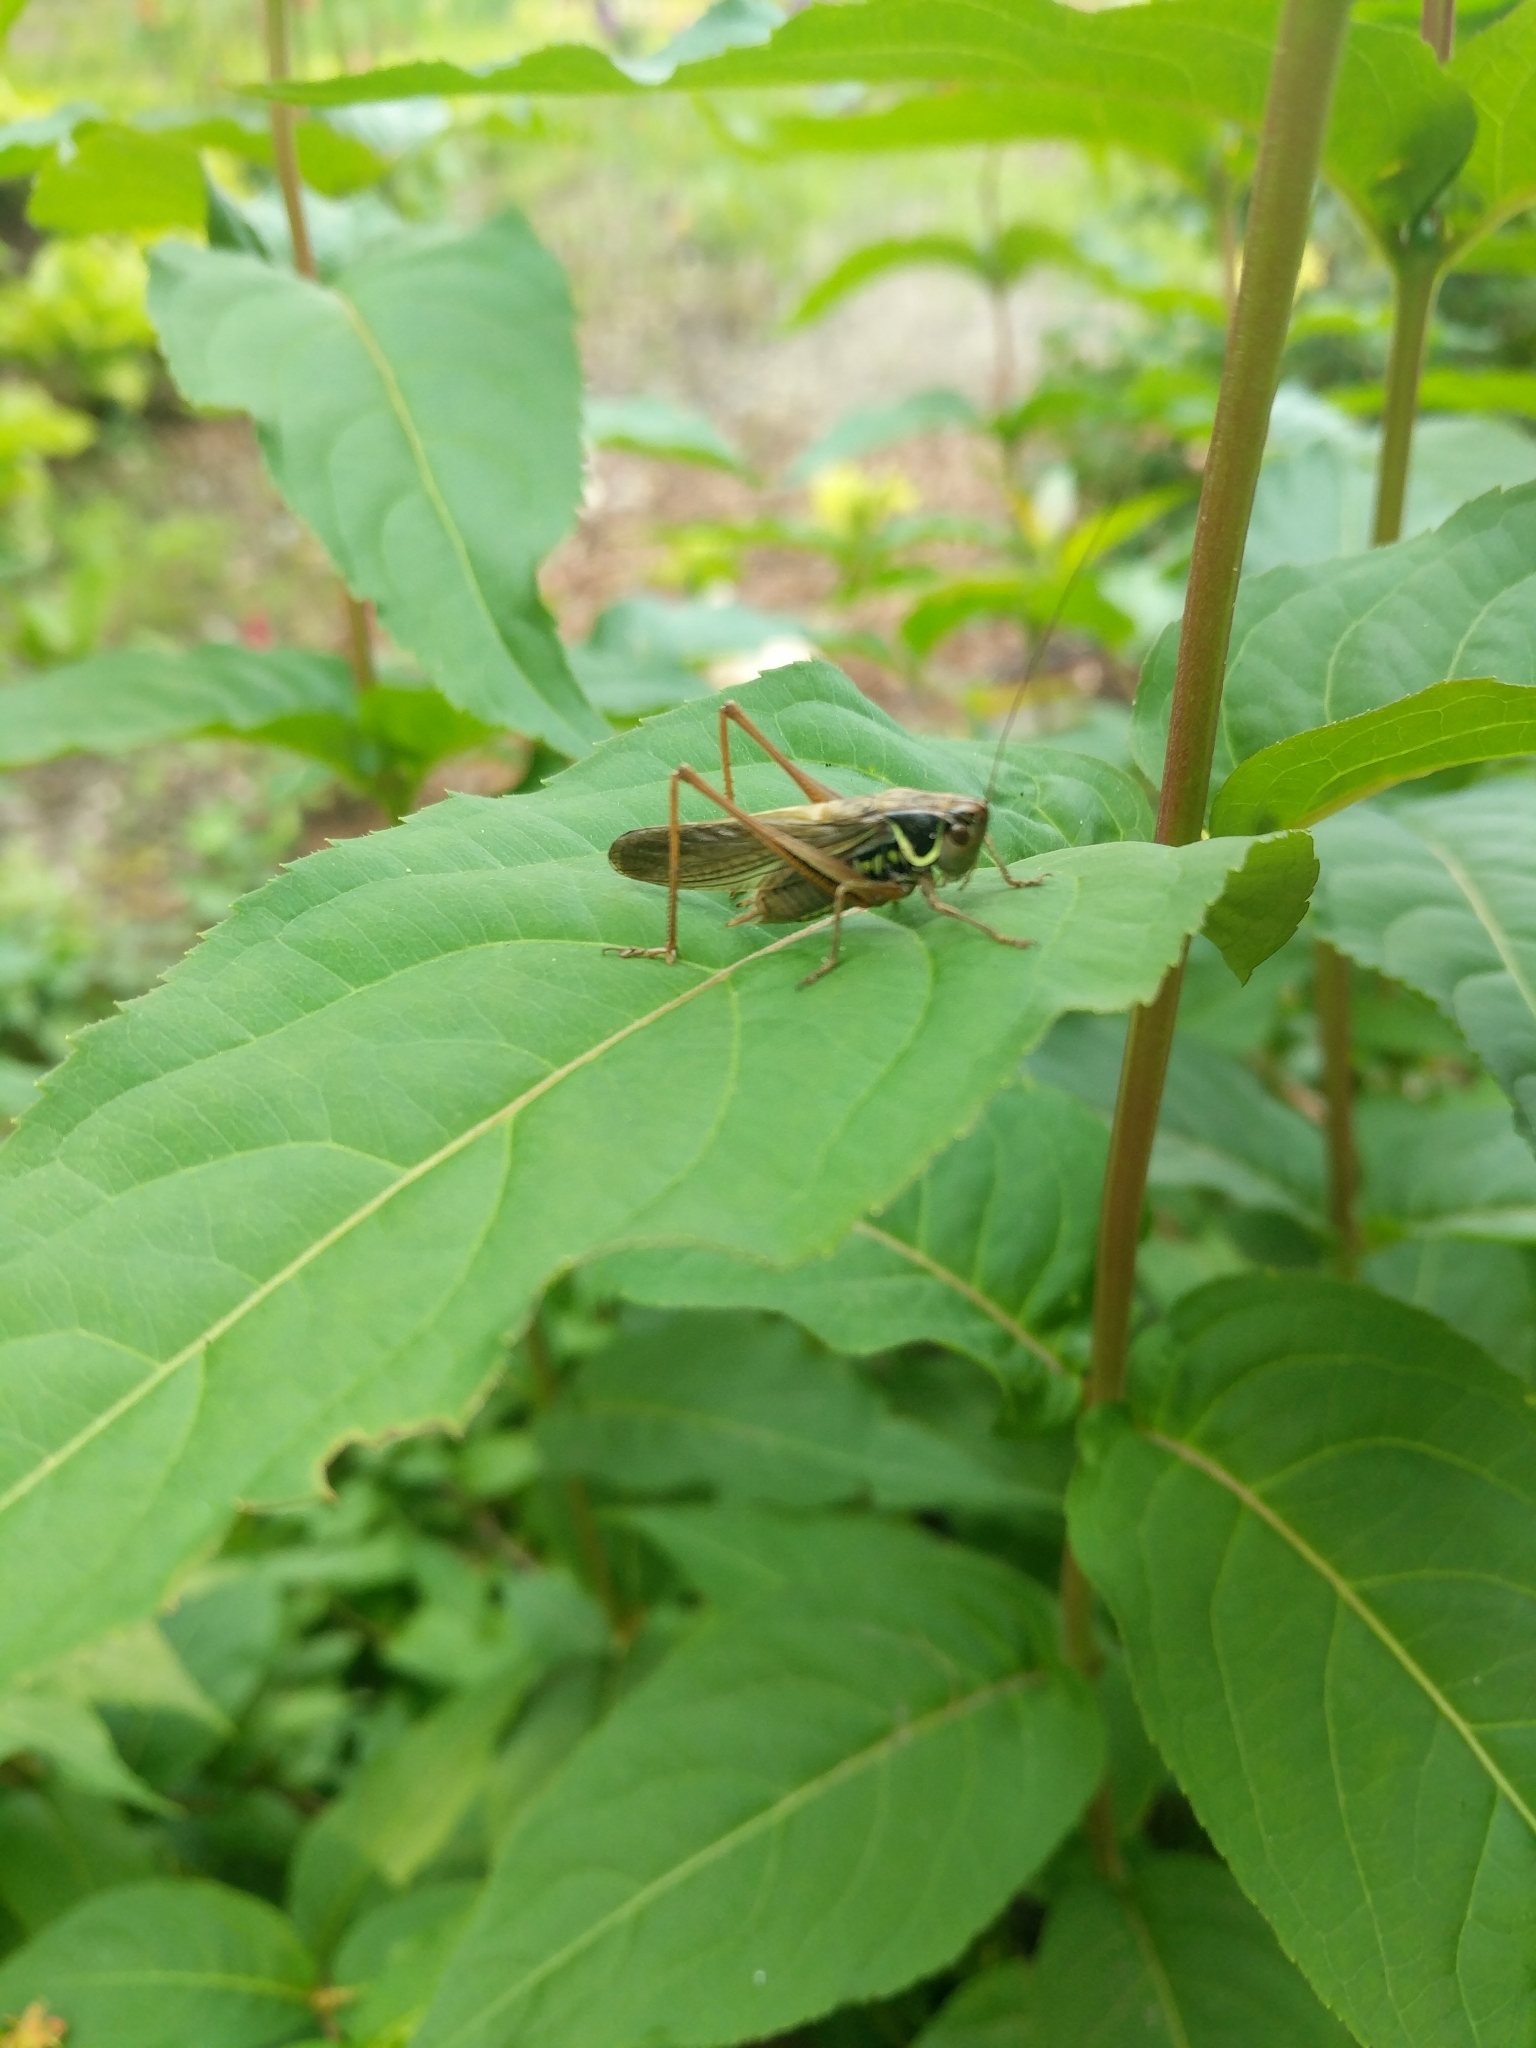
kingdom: Animalia
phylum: Arthropoda
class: Insecta
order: Orthoptera
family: Tettigoniidae
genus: Roeseliana
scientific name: Roeseliana roeselii
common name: Roesel's bush cricket
